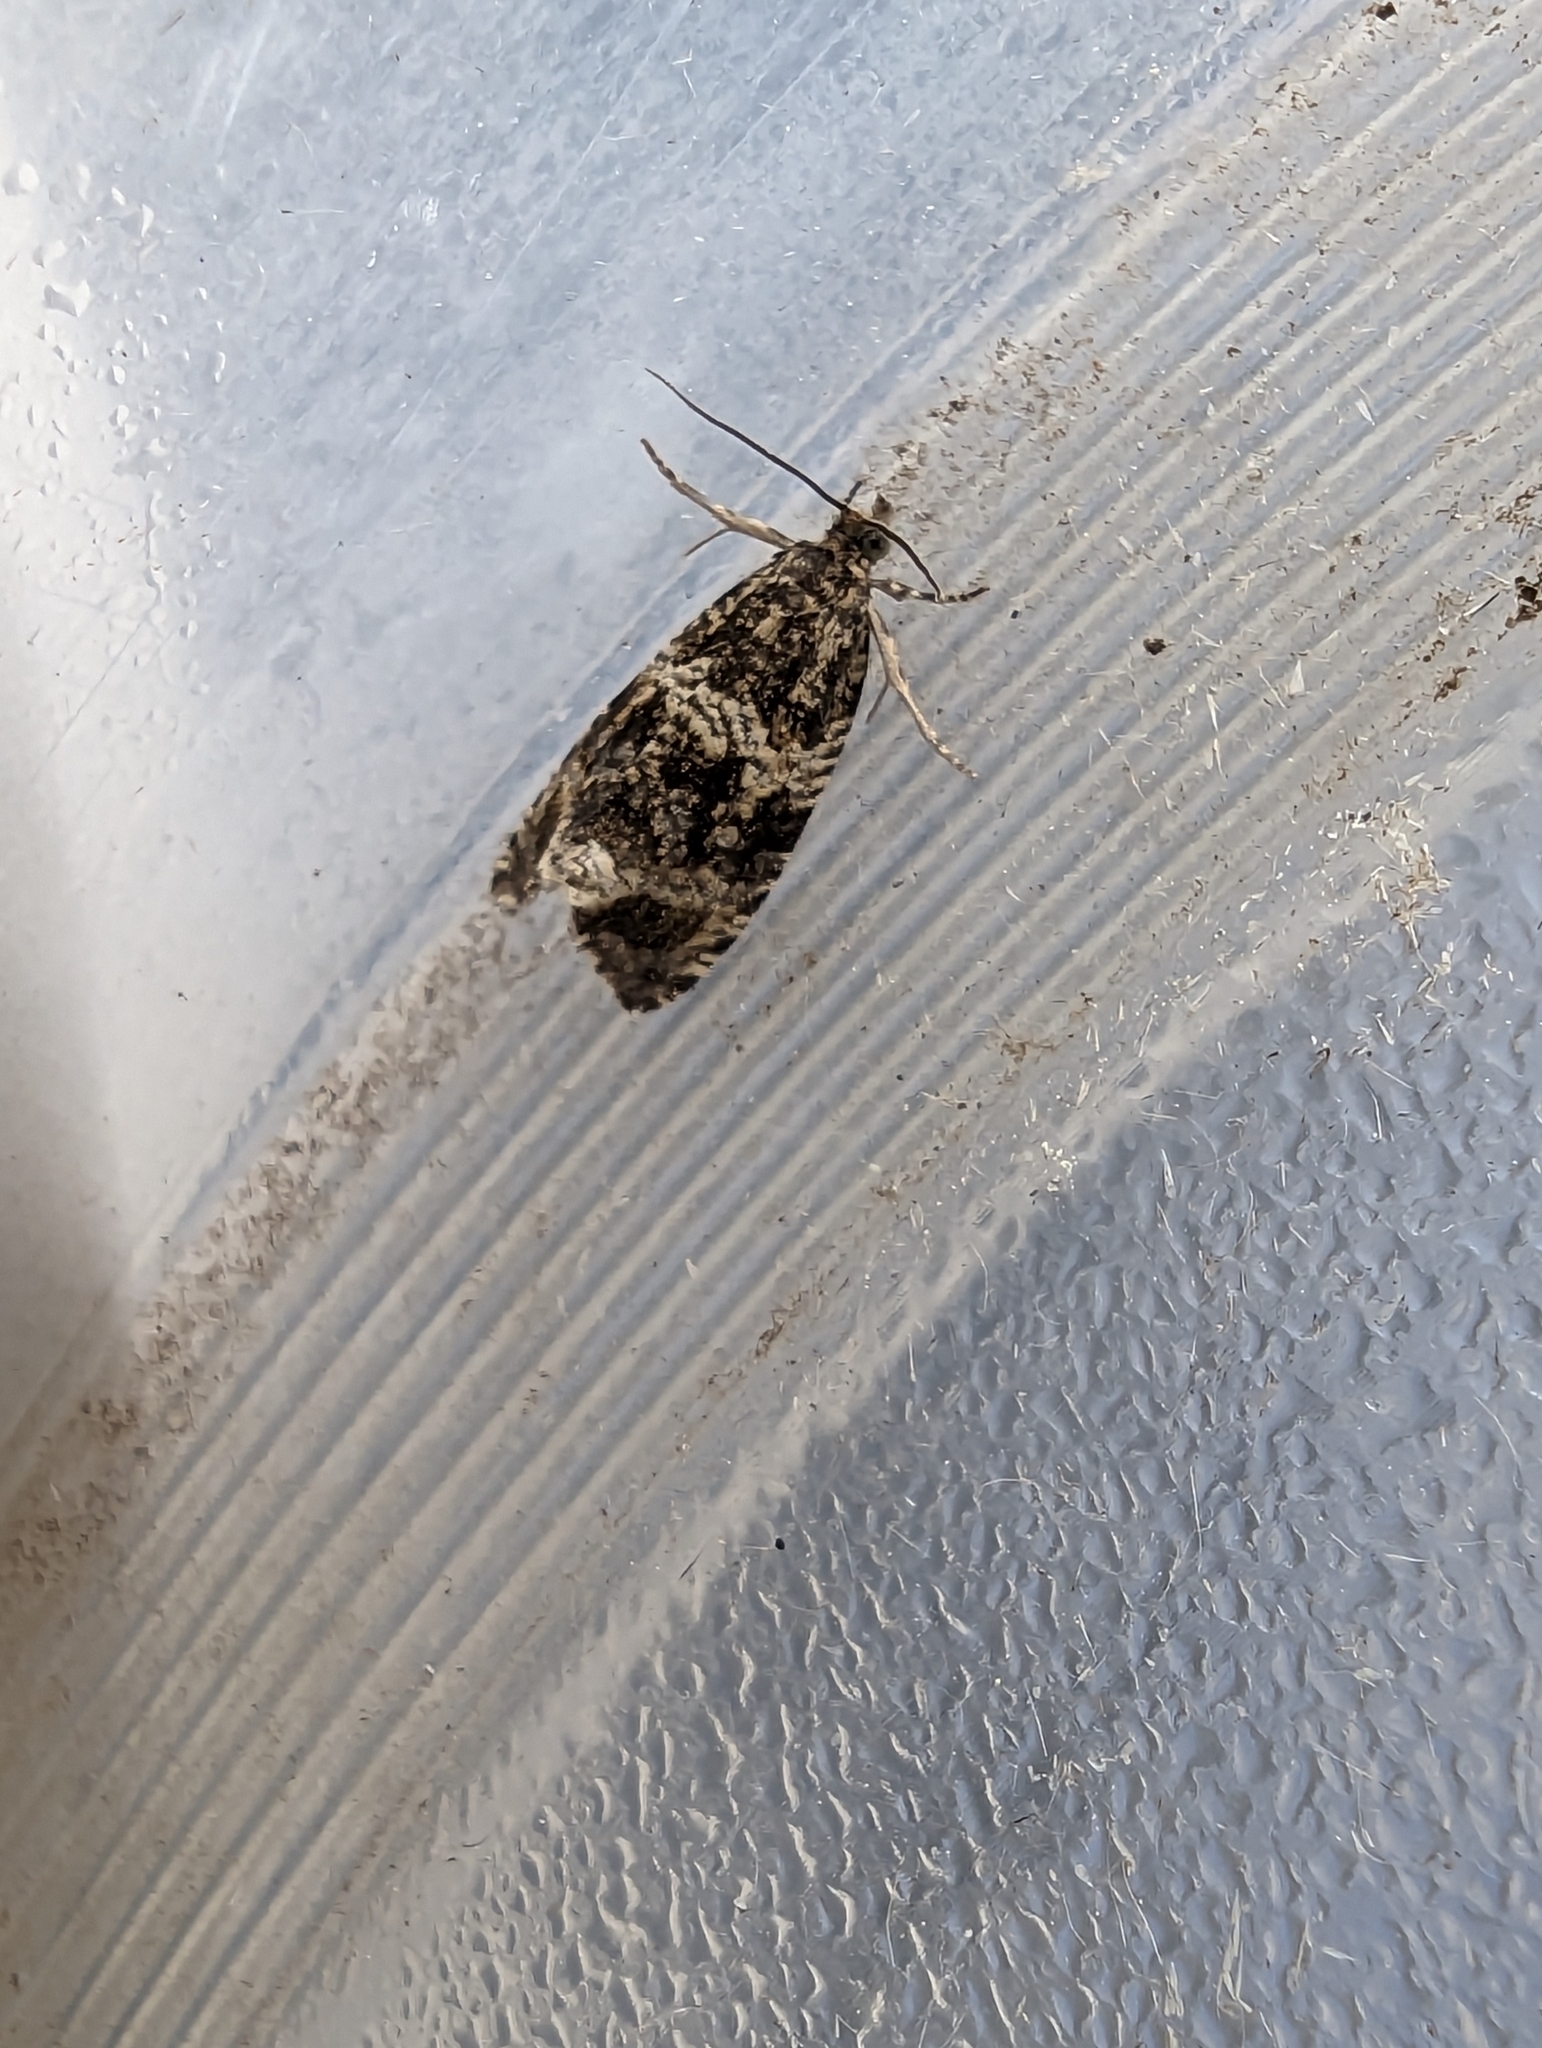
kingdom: Animalia
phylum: Arthropoda
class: Insecta
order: Lepidoptera
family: Tortricidae
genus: Syricoris
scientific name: Syricoris lacunana
